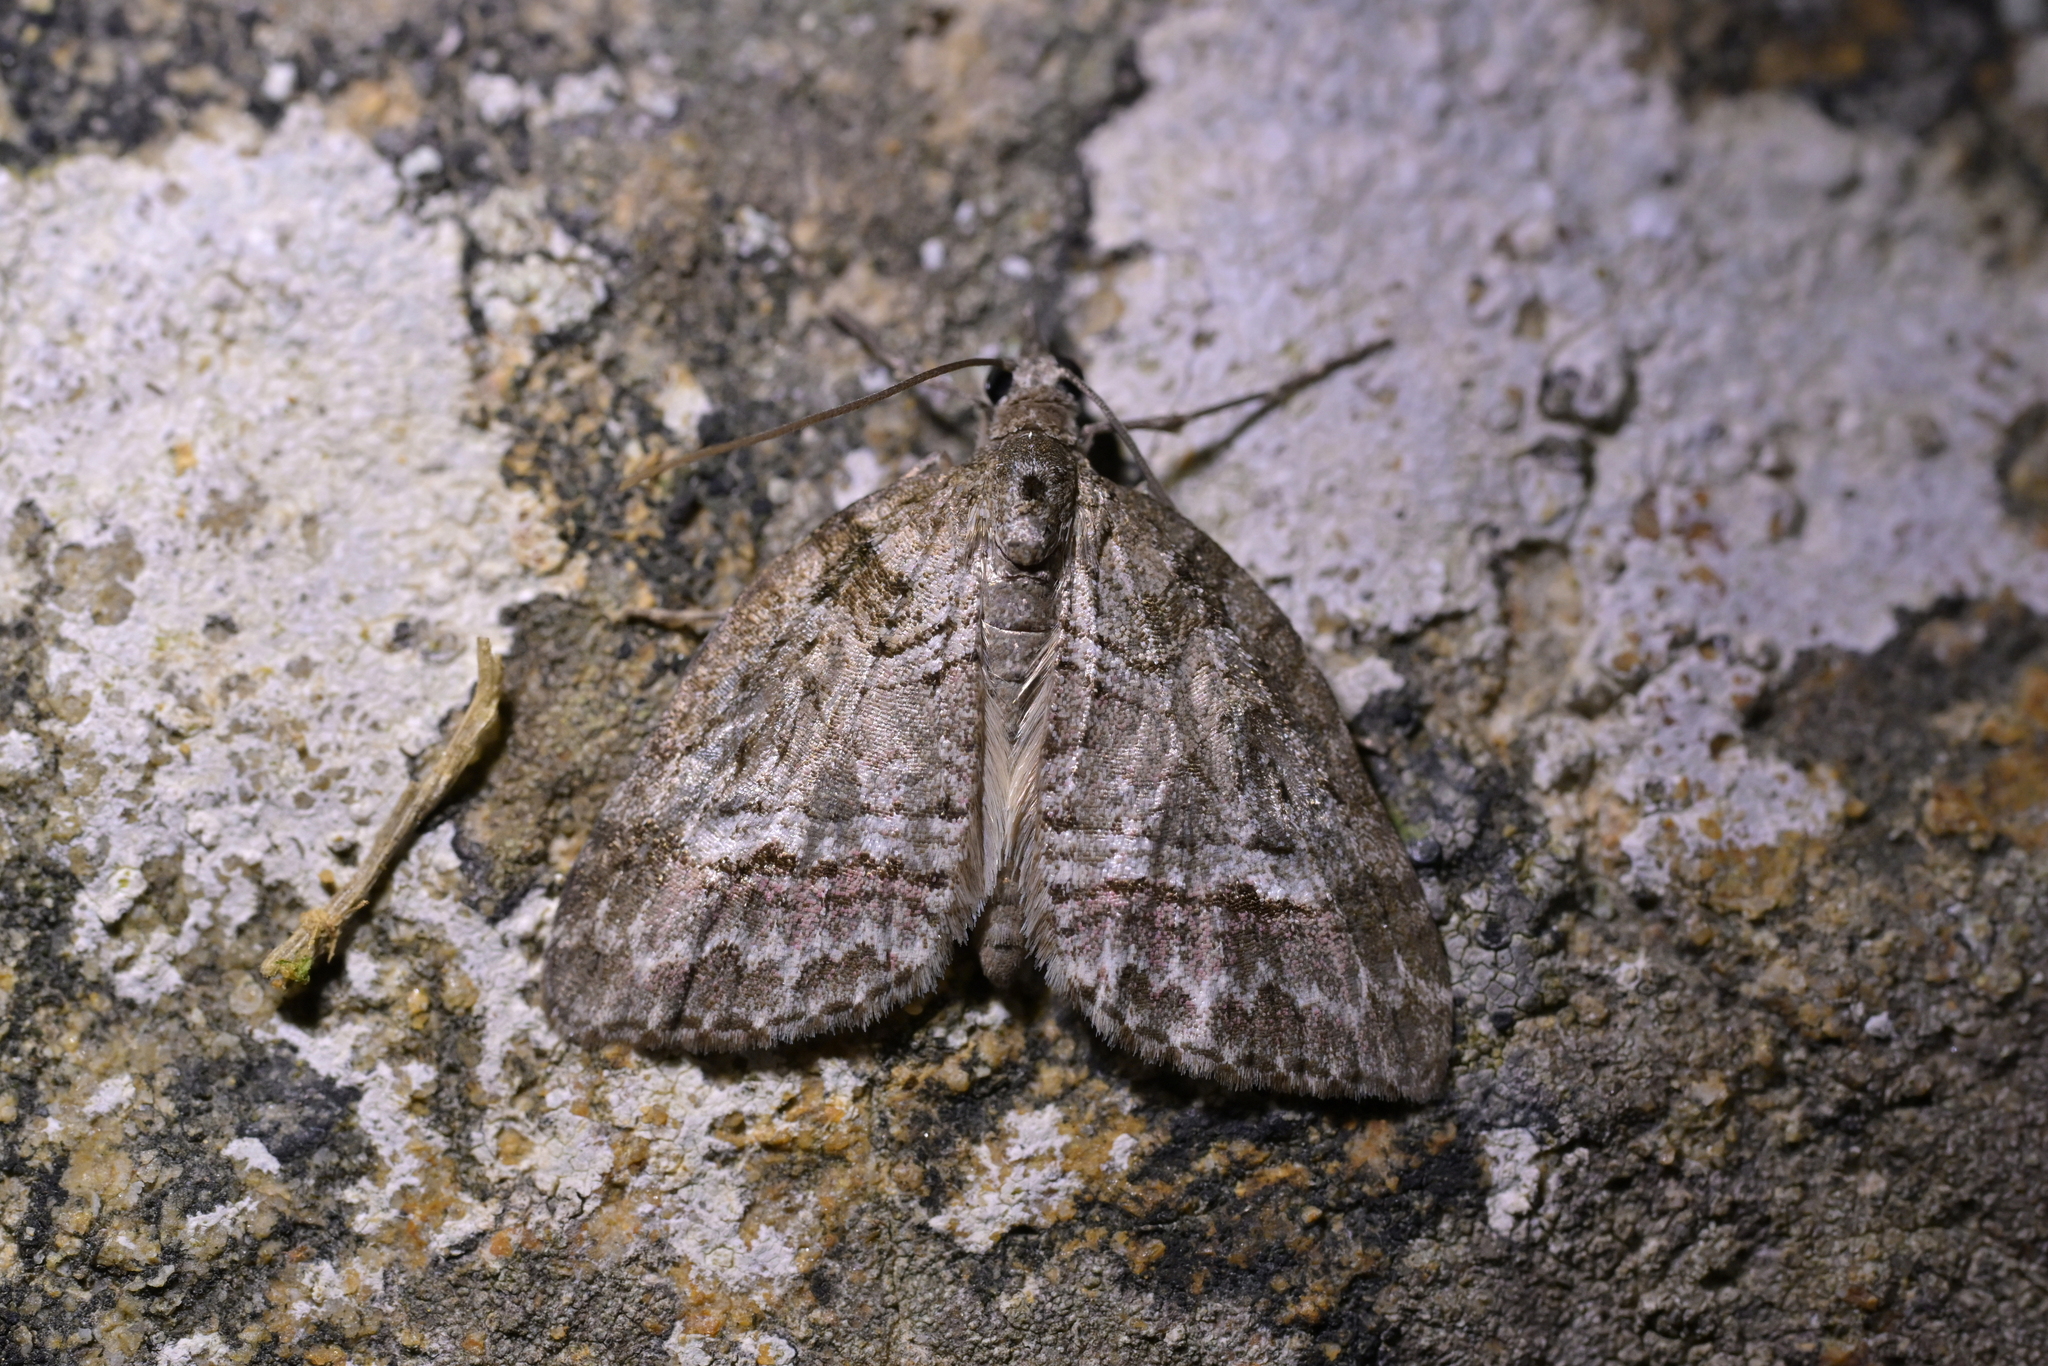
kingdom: Animalia
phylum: Arthropoda
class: Insecta
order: Lepidoptera
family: Geometridae
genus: Microdes
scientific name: Microdes quadristrigata
